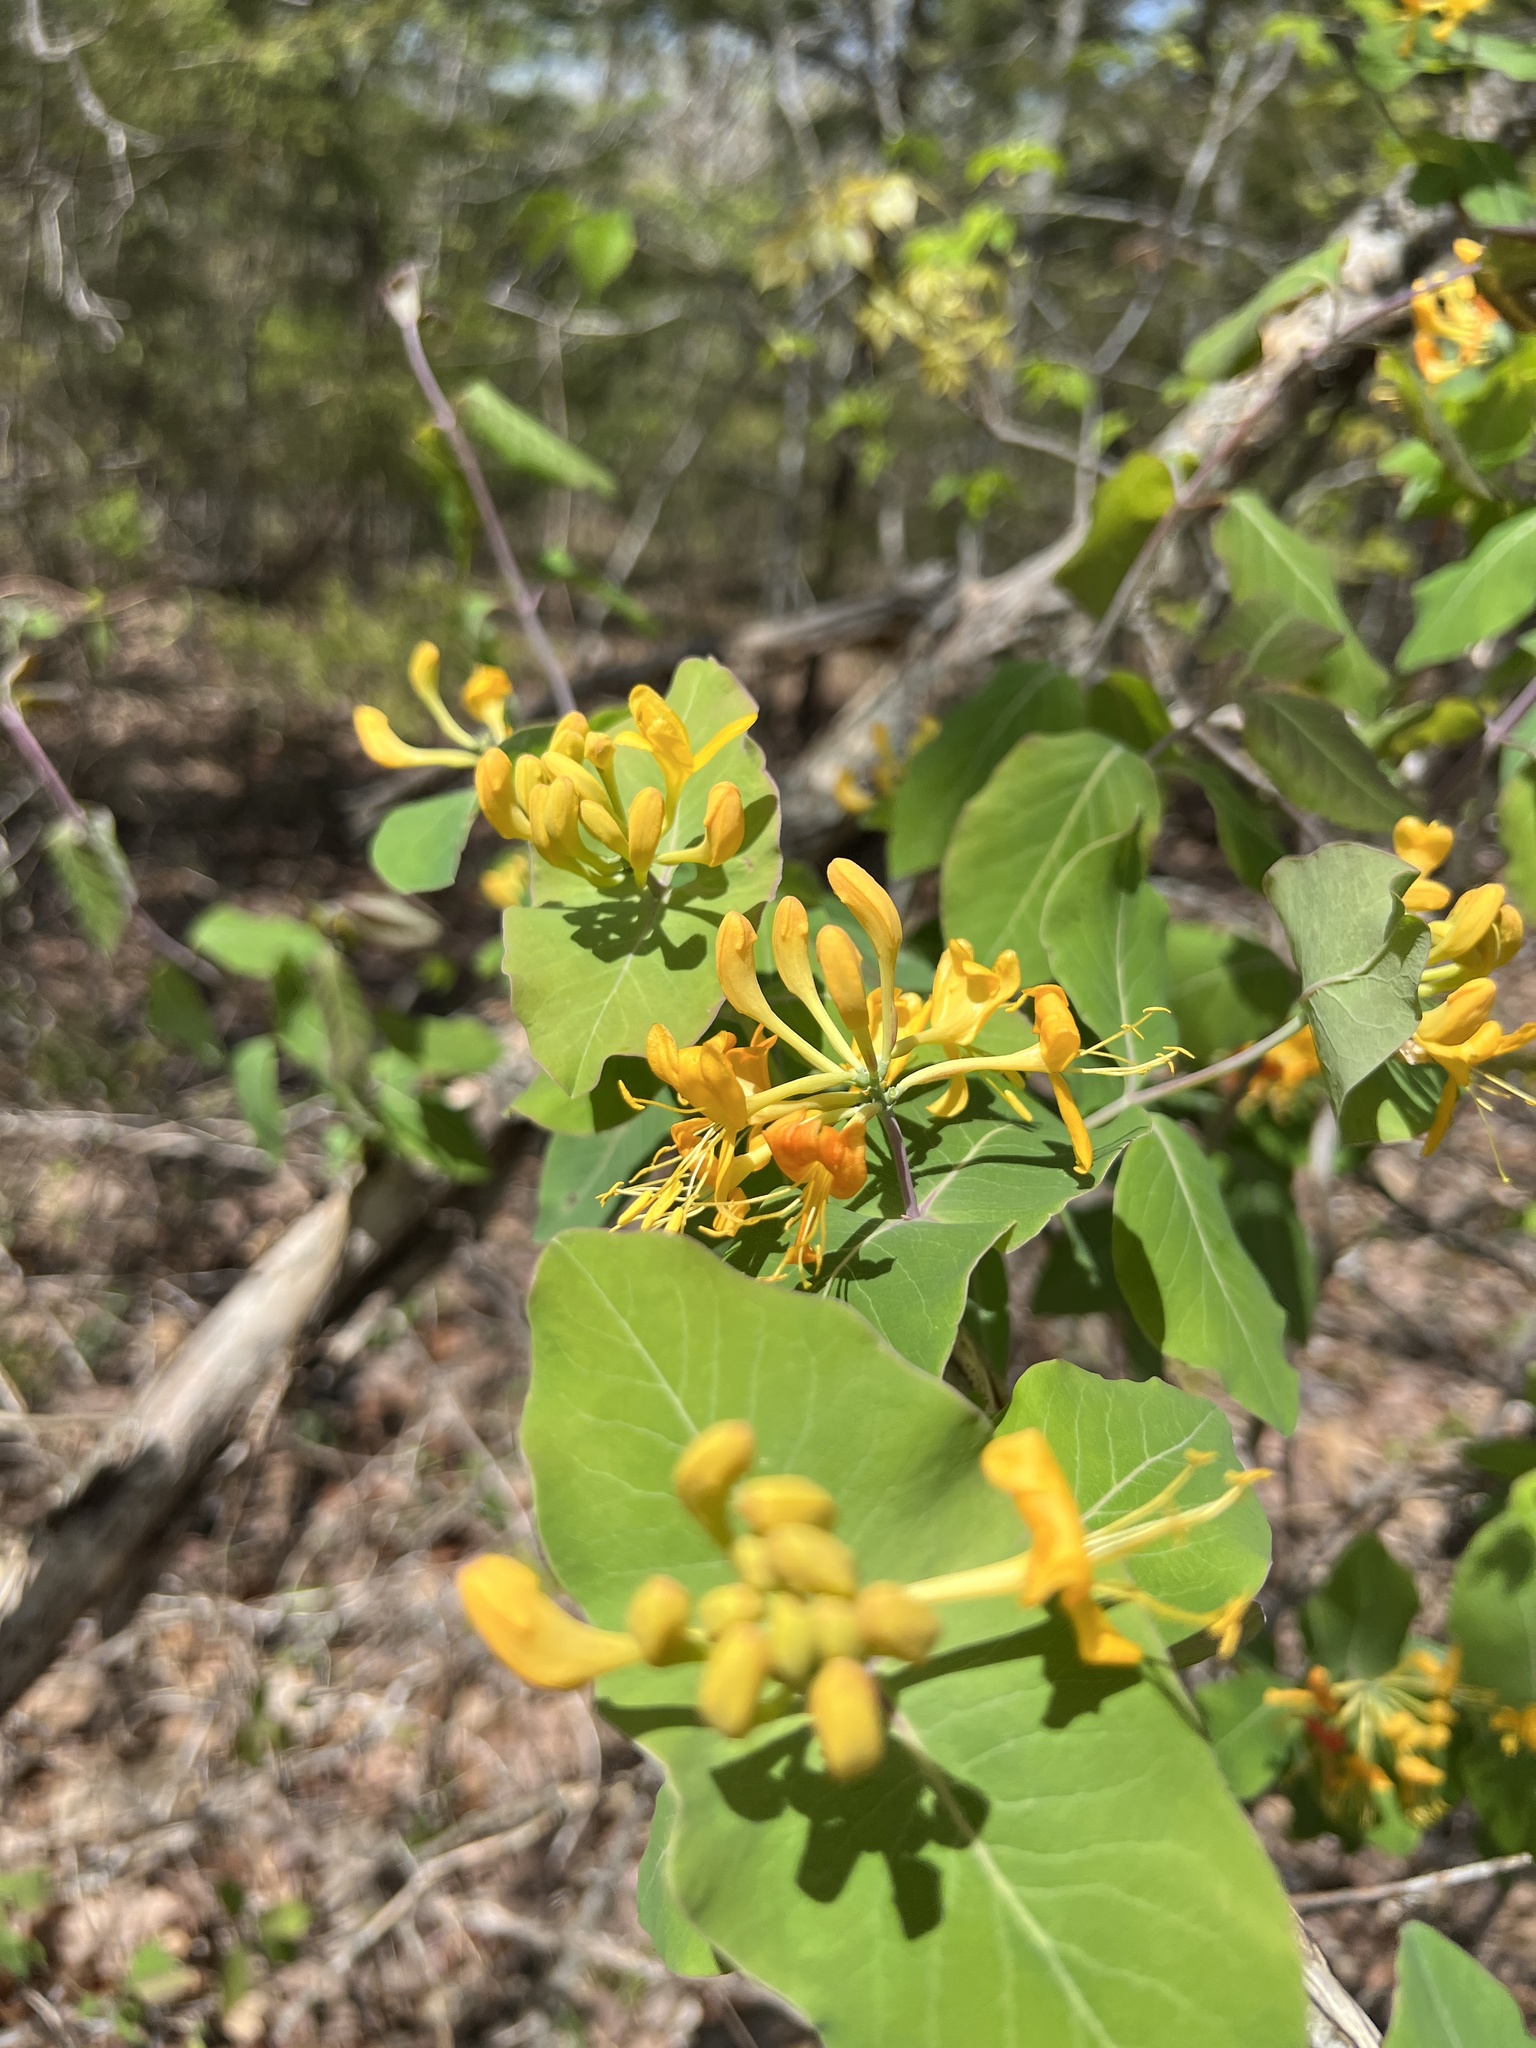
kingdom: Plantae
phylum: Tracheophyta
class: Magnoliopsida
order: Dipsacales
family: Caprifoliaceae
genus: Lonicera
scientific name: Lonicera flava
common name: Yellow honeysuckle
